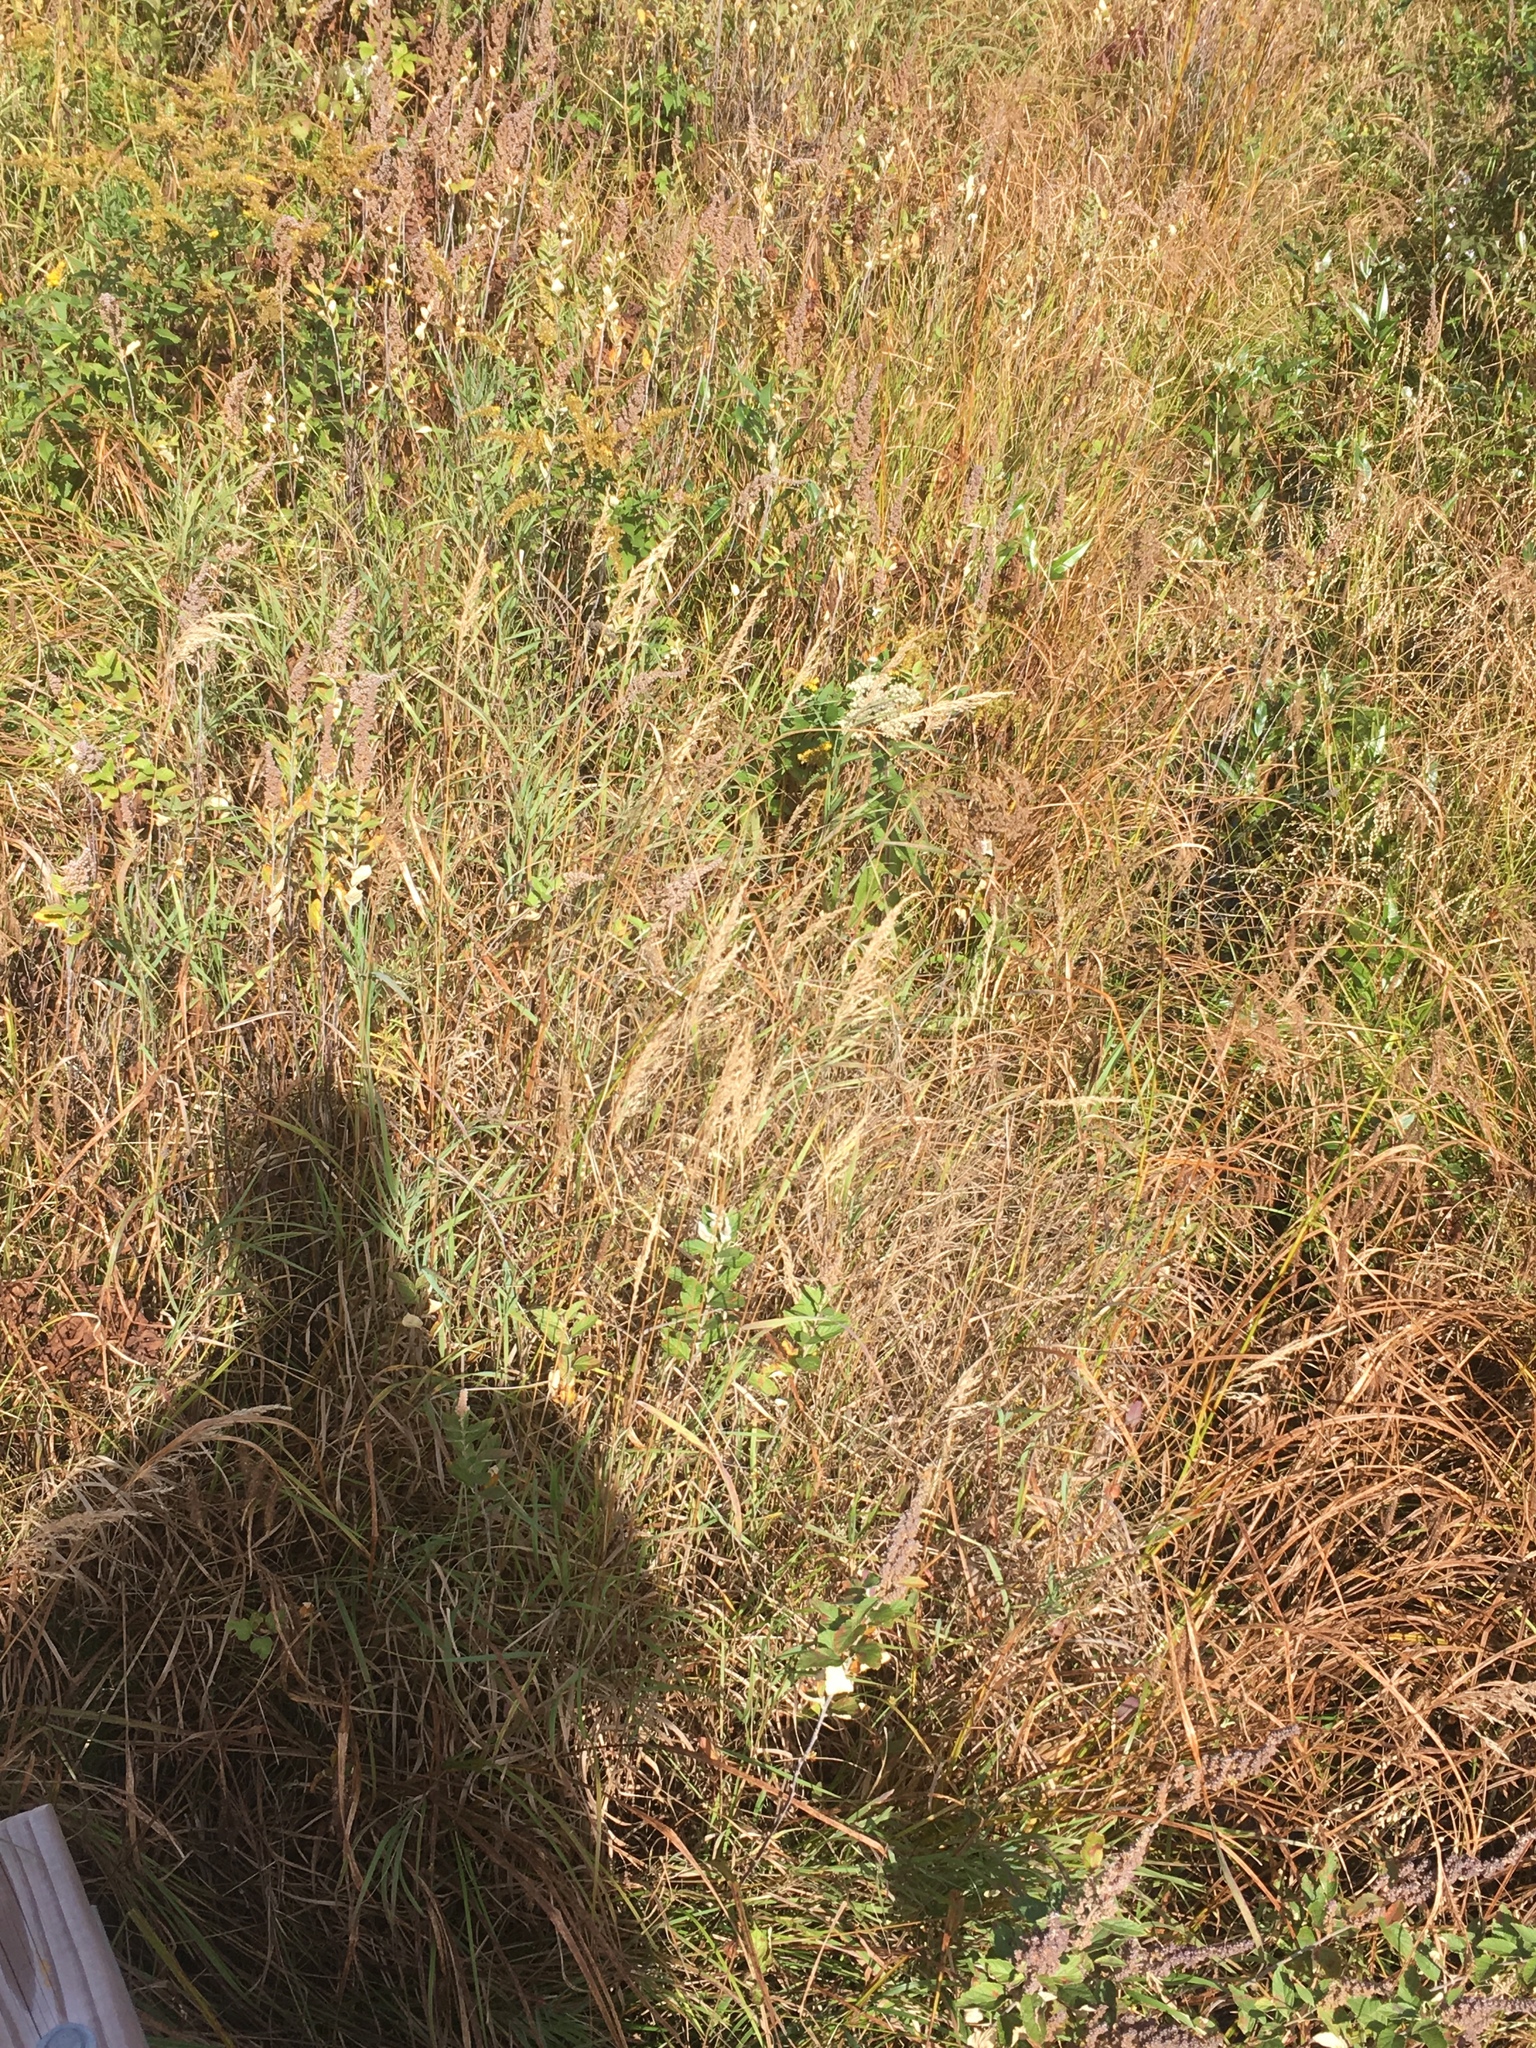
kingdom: Plantae
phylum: Tracheophyta
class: Liliopsida
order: Poales
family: Poaceae
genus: Calamagrostis
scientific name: Calamagrostis canadensis
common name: Canada bluejoint
